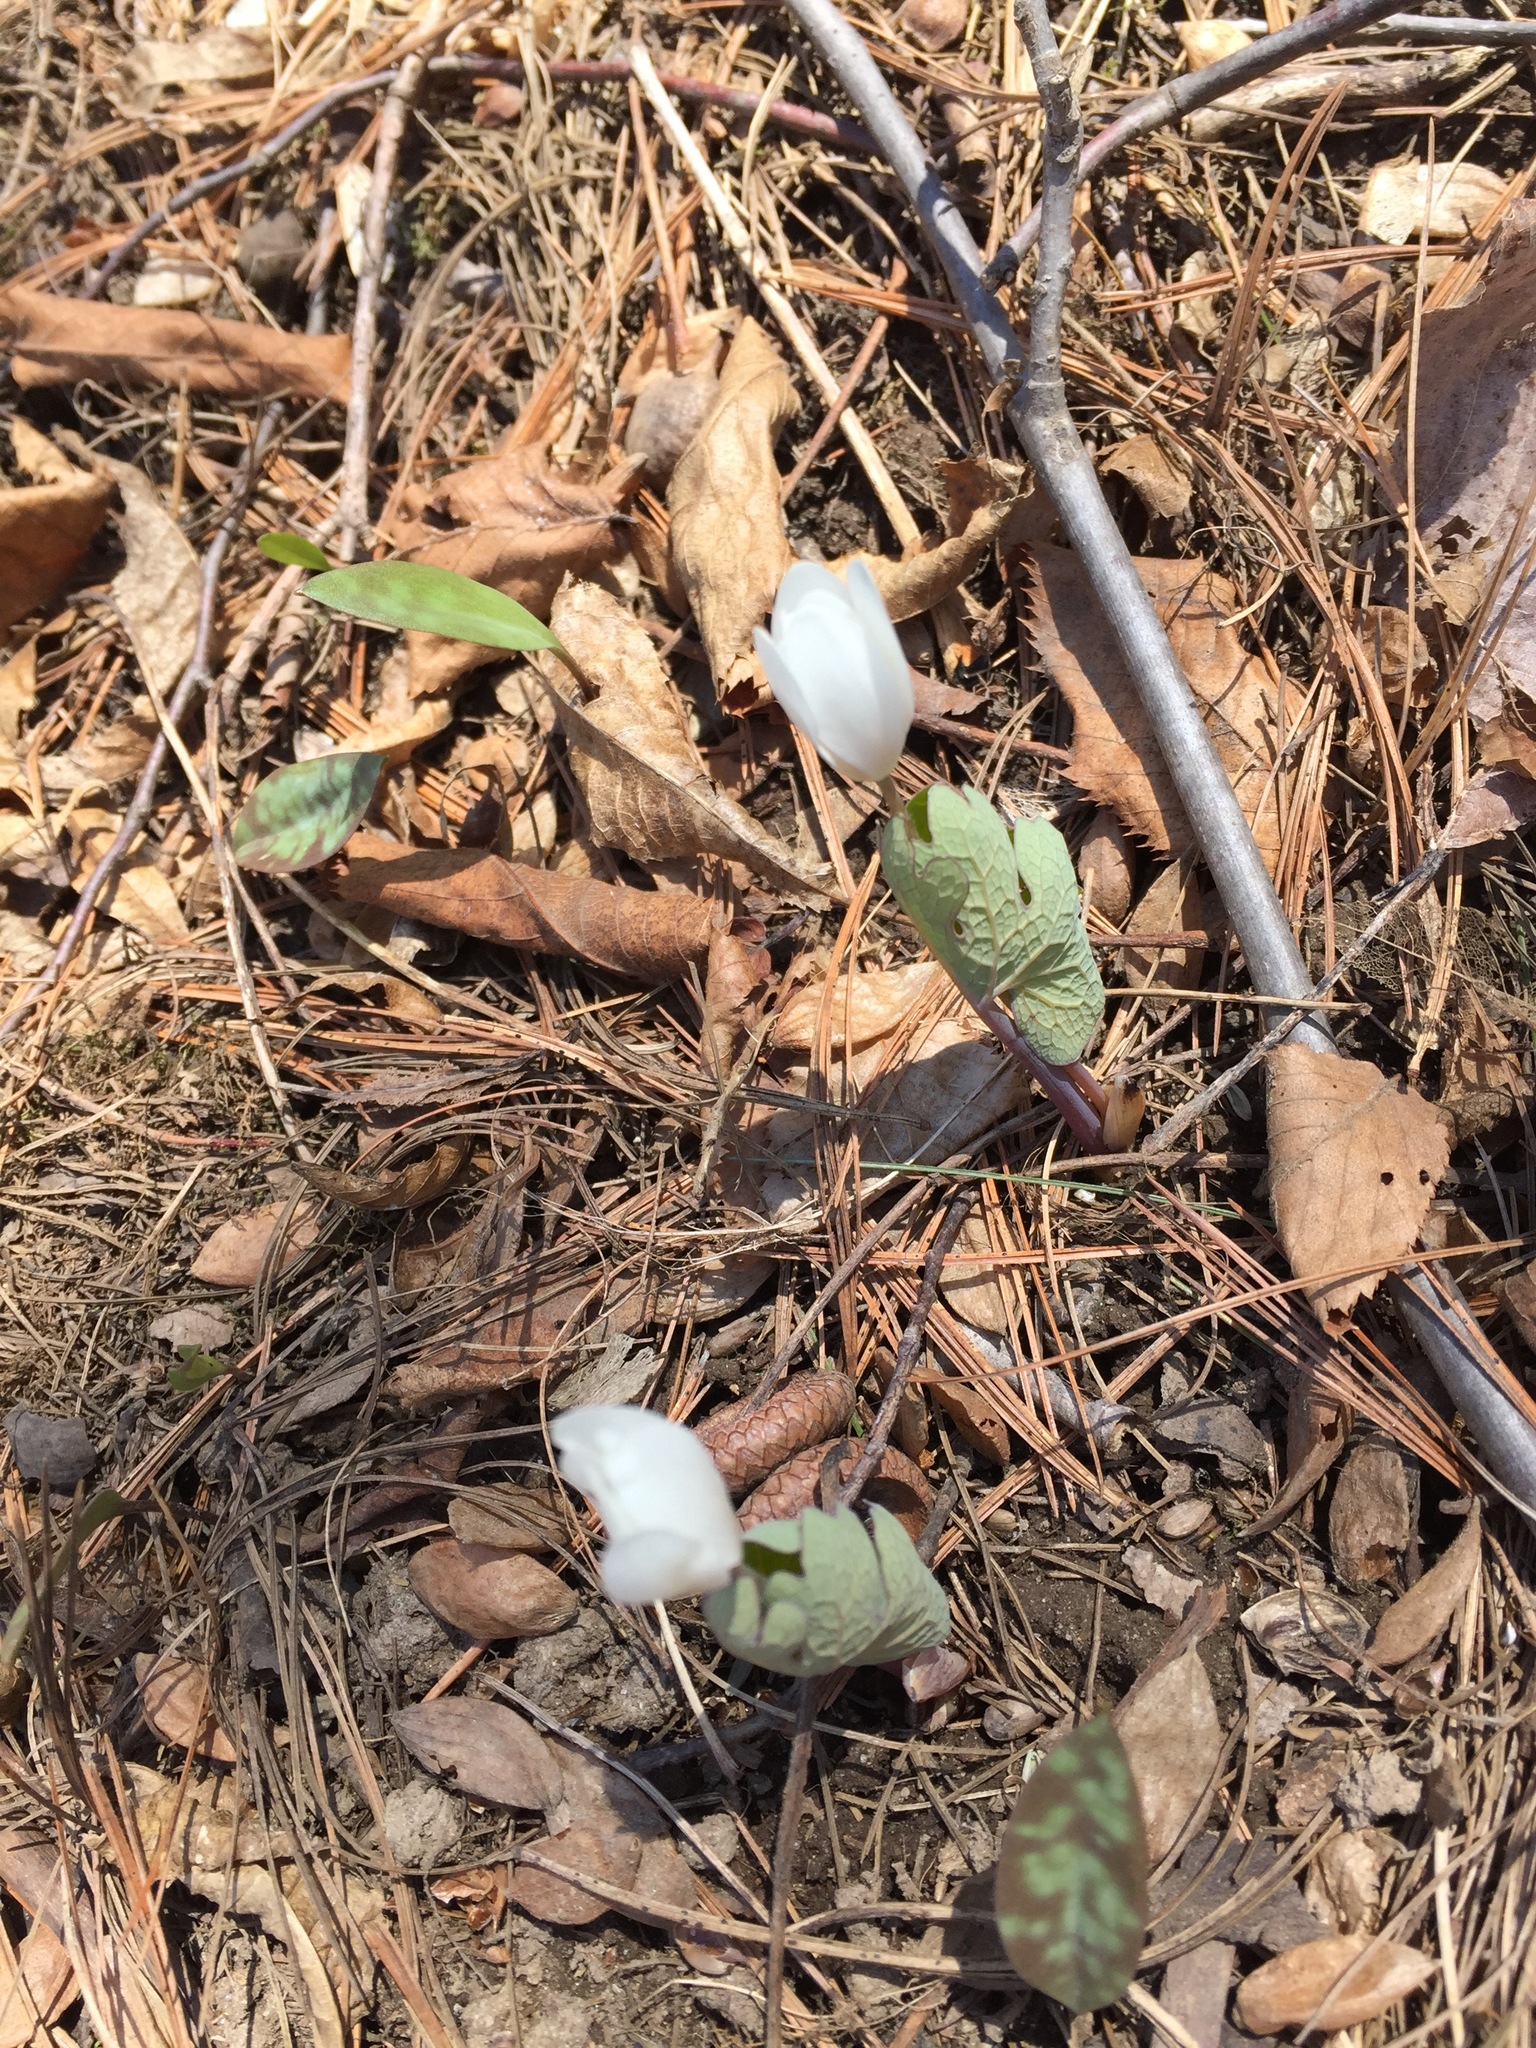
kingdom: Plantae
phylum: Tracheophyta
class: Magnoliopsida
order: Ranunculales
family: Papaveraceae
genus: Sanguinaria
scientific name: Sanguinaria canadensis
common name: Bloodroot
